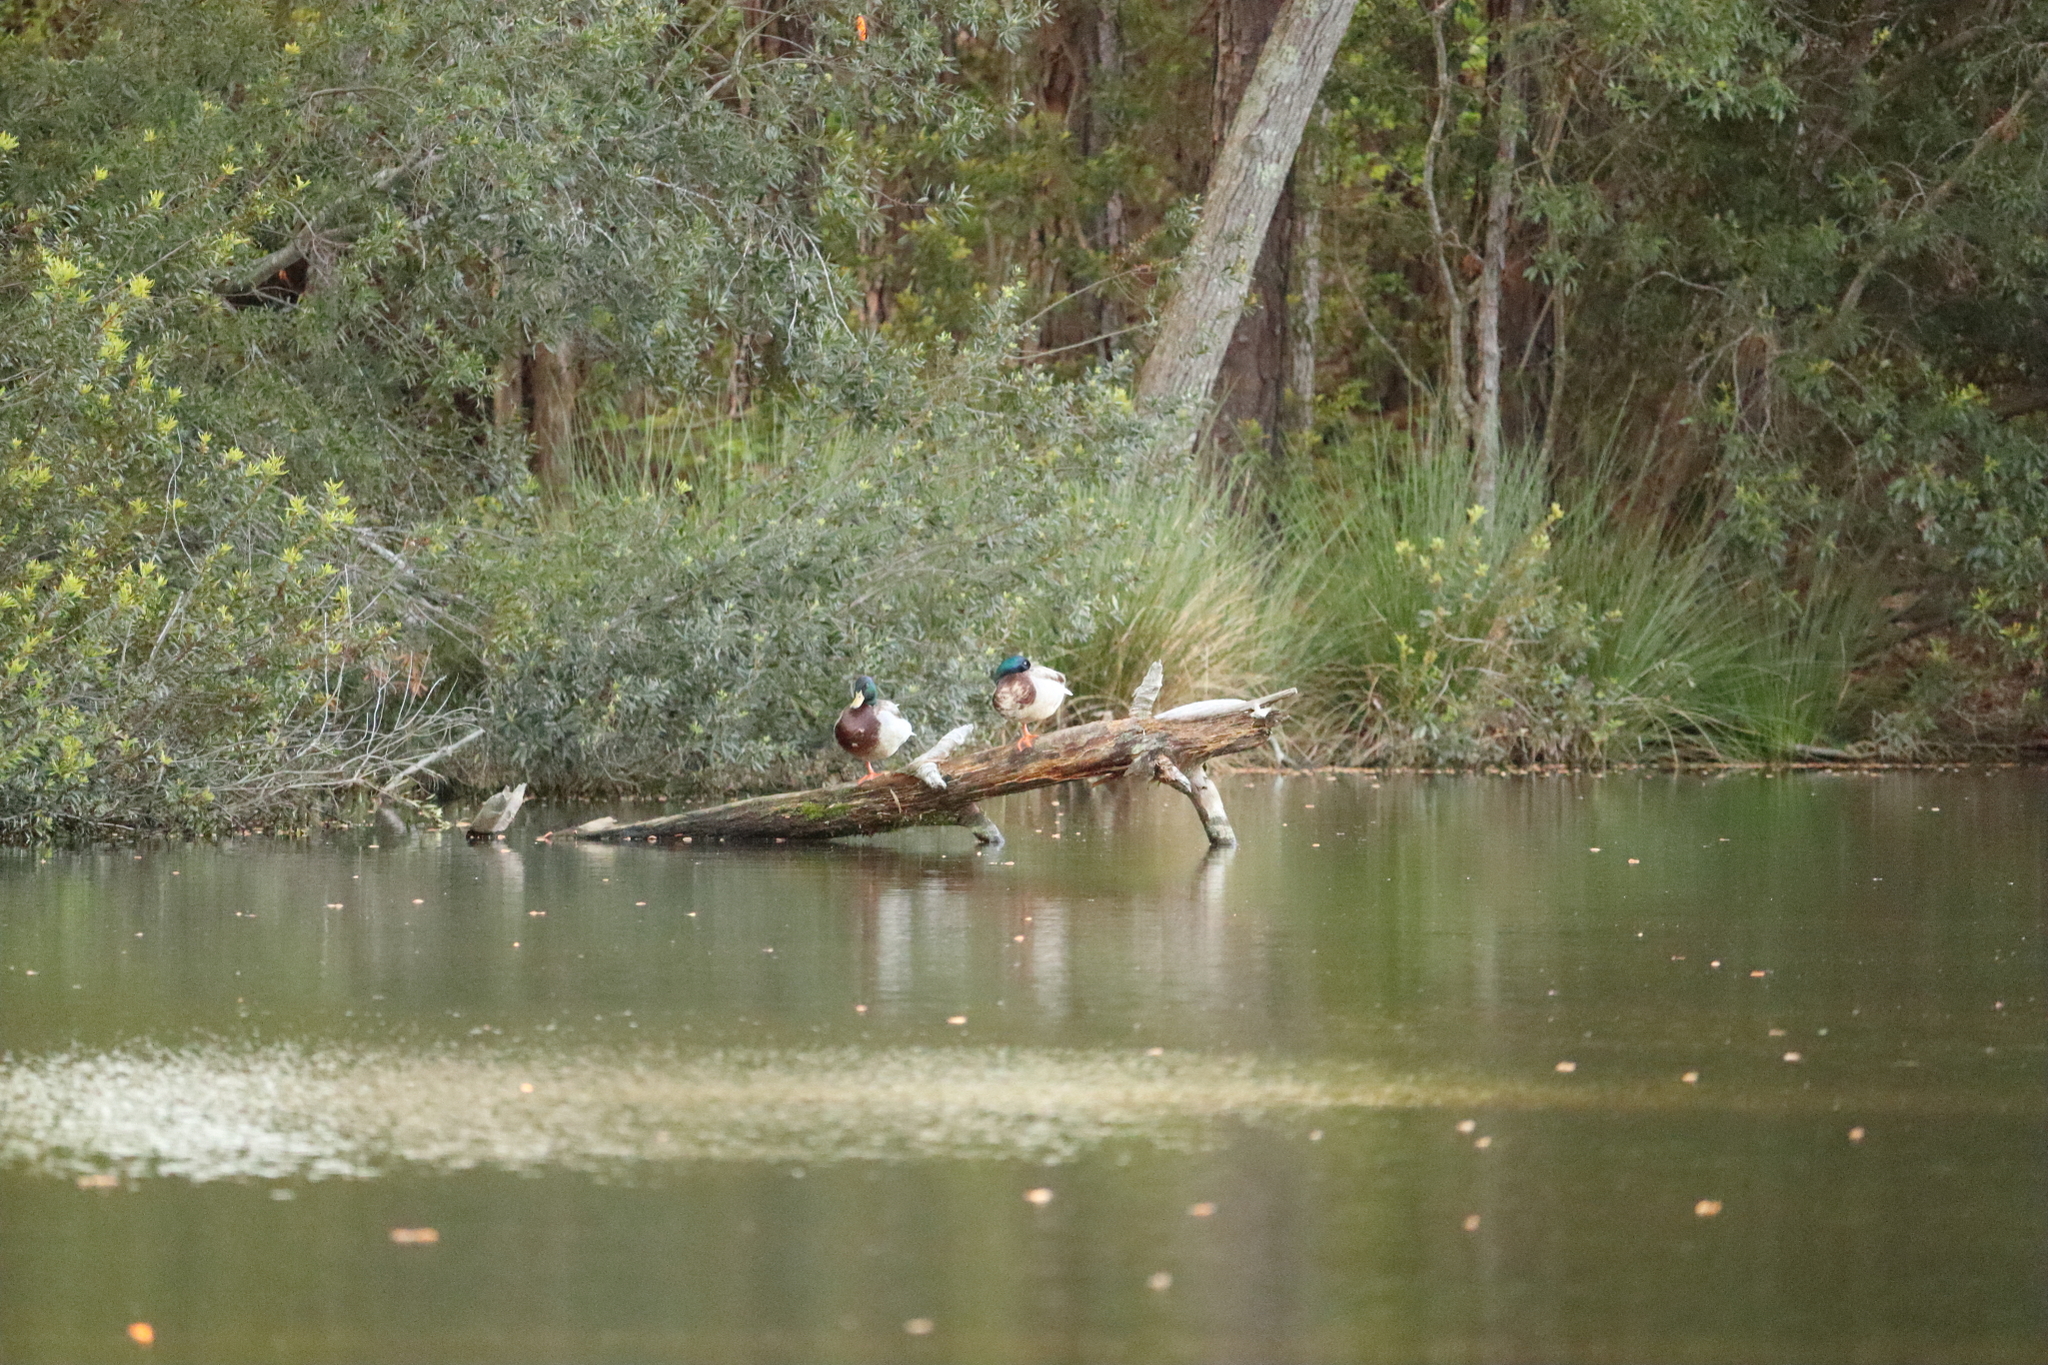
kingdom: Animalia
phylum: Chordata
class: Aves
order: Anseriformes
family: Anatidae
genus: Anas
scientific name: Anas platyrhynchos
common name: Mallard
